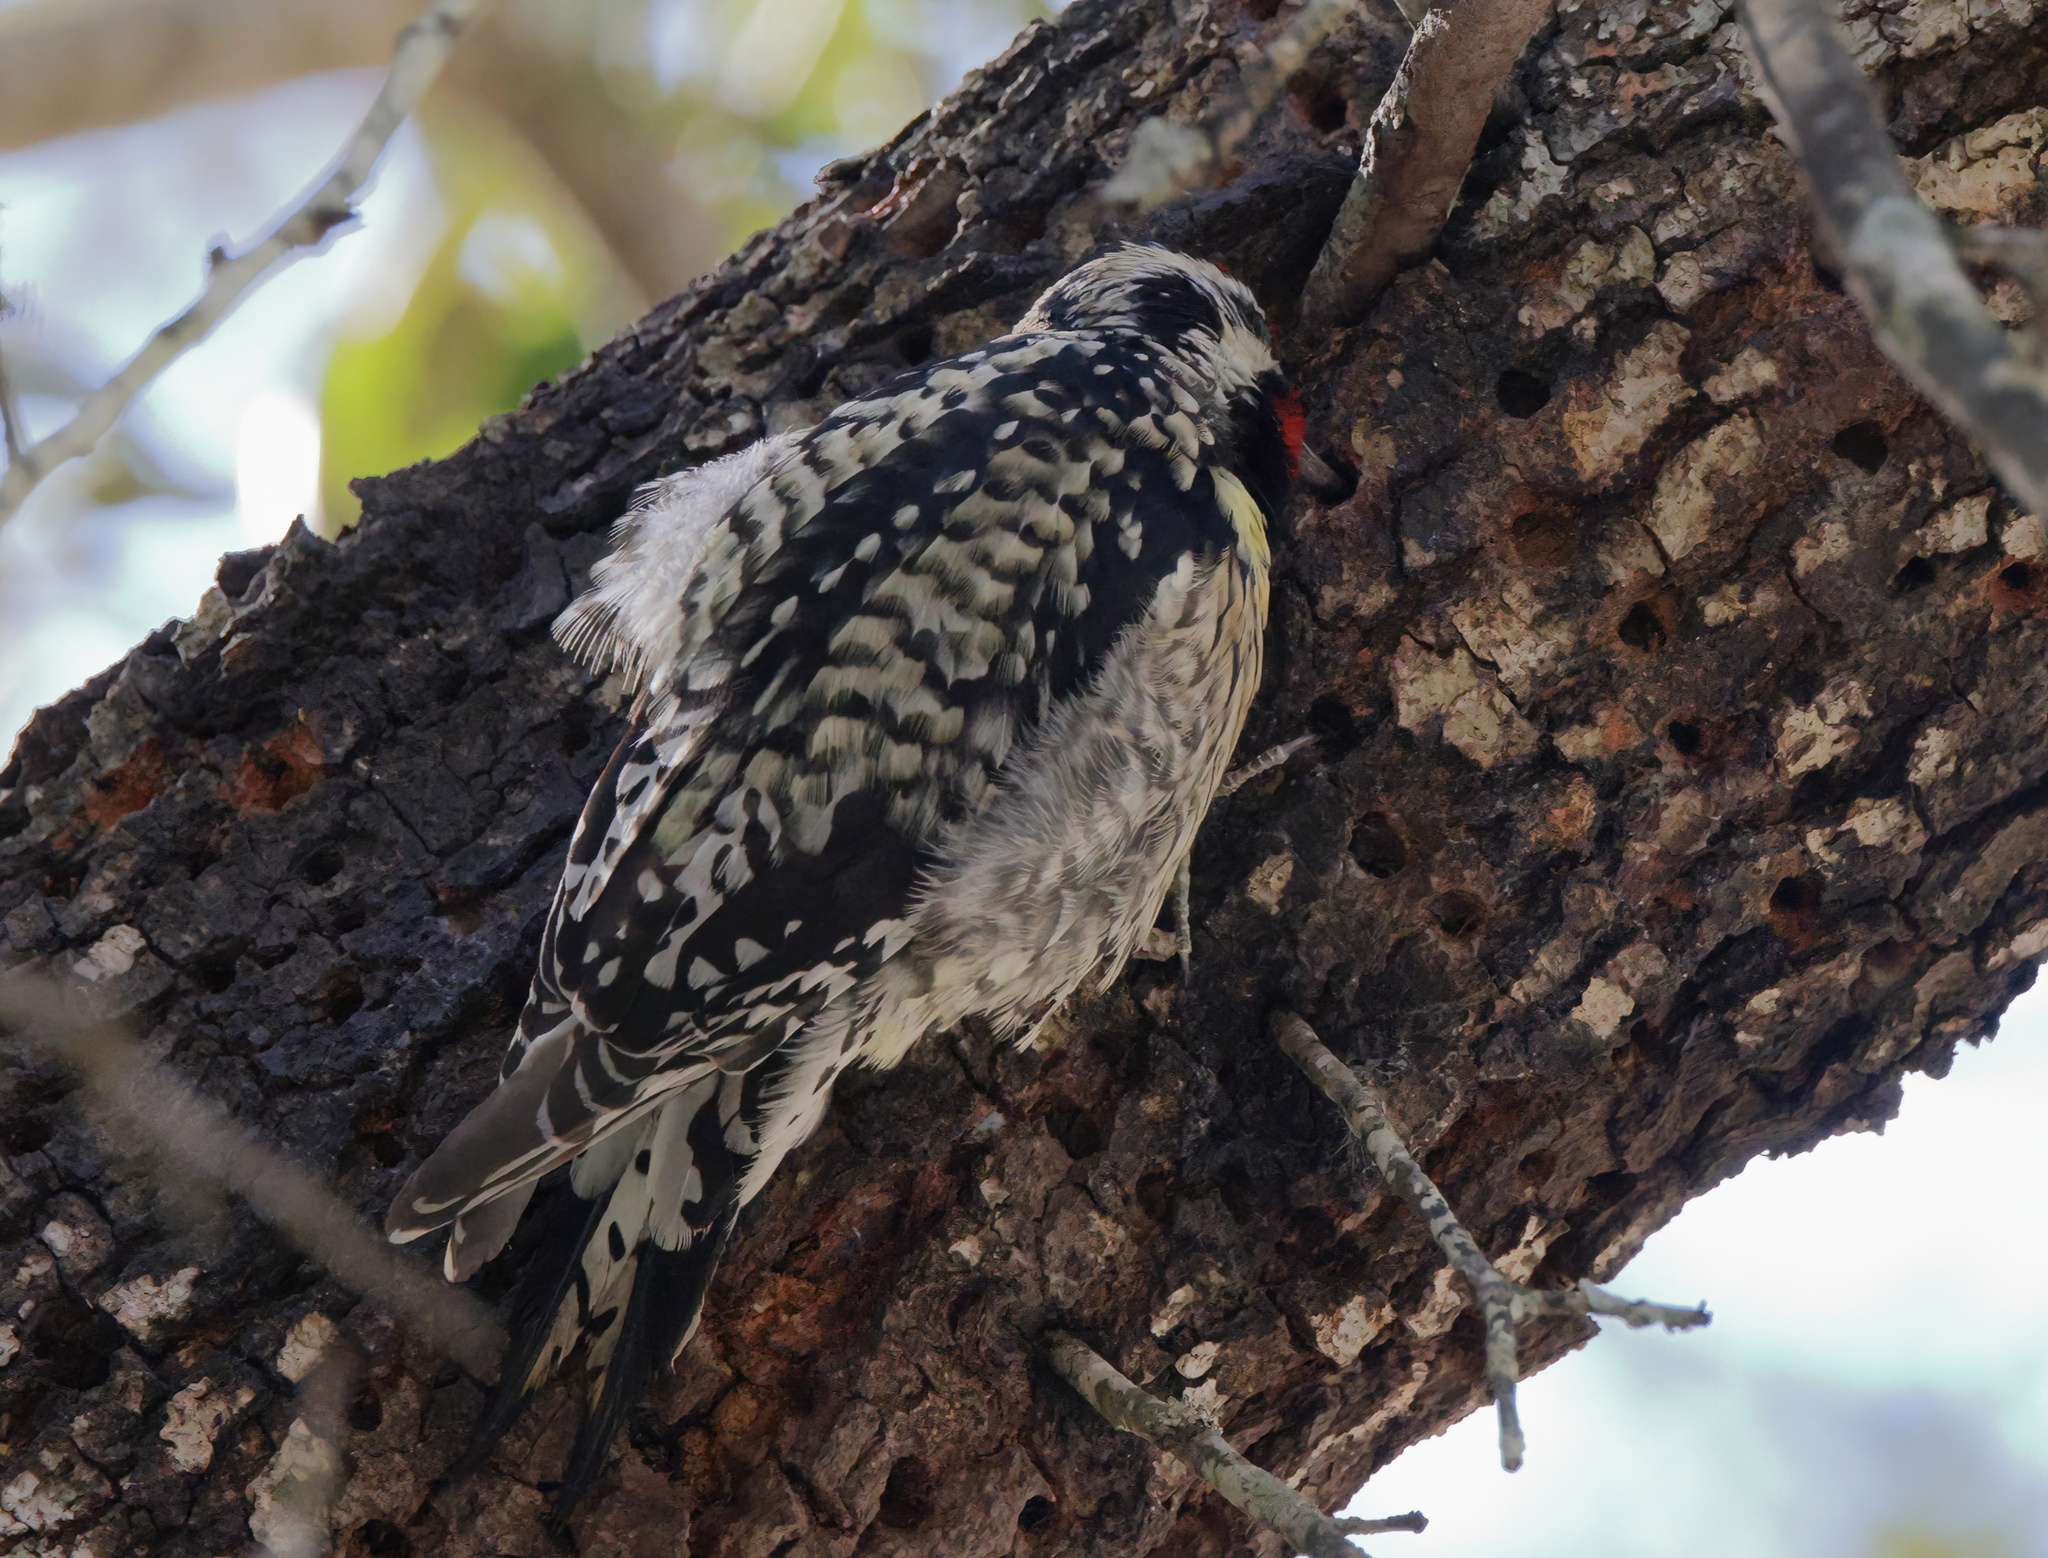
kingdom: Animalia
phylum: Chordata
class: Aves
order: Piciformes
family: Picidae
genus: Sphyrapicus
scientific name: Sphyrapicus varius
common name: Yellow-bellied sapsucker
